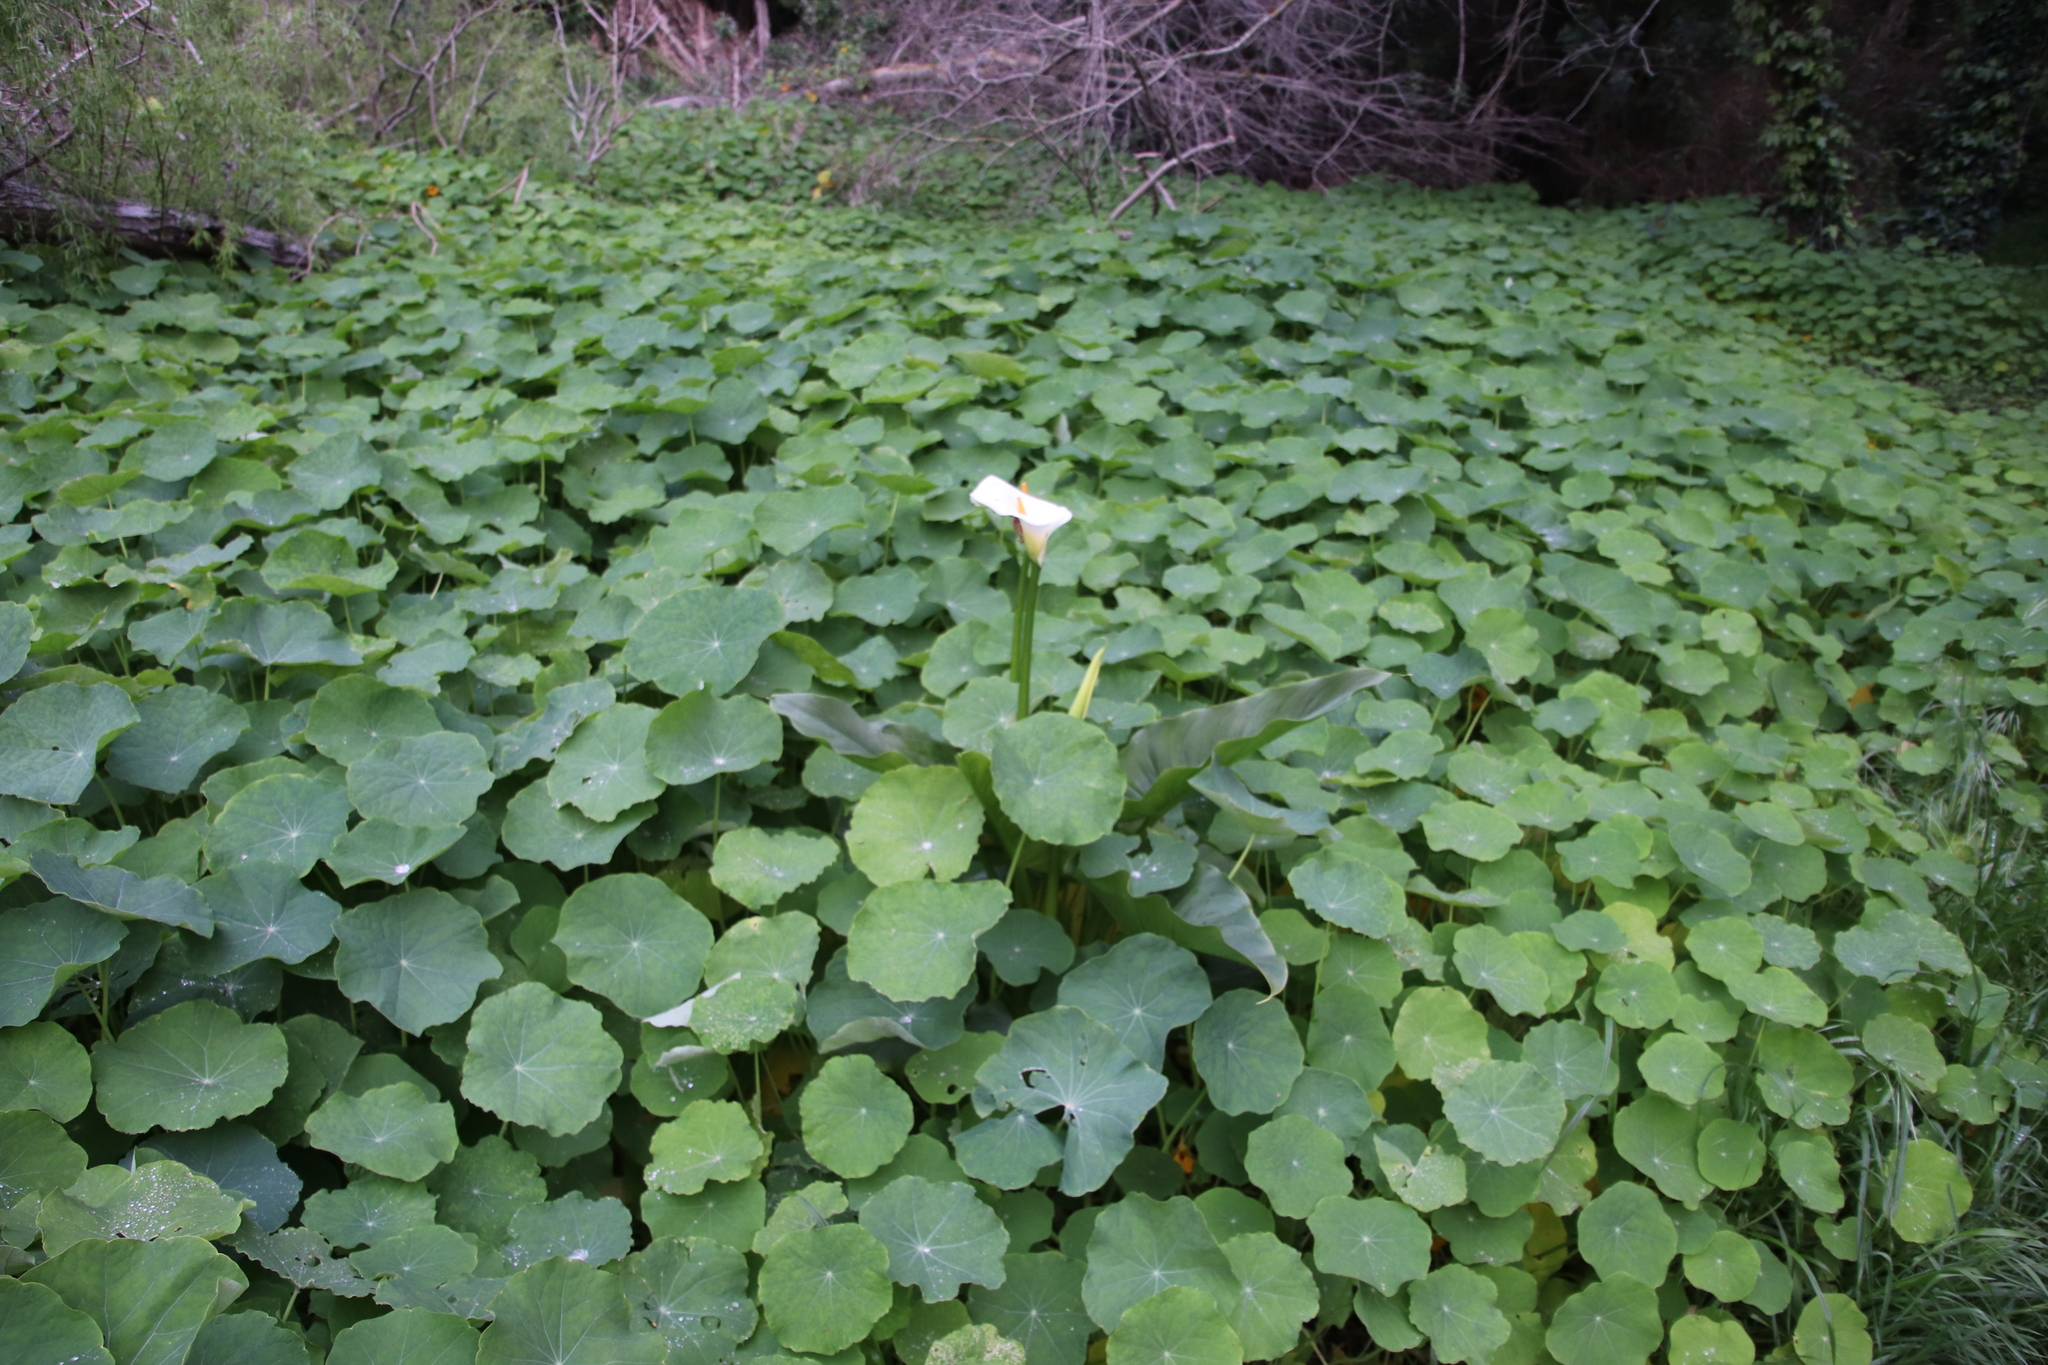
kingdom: Plantae
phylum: Tracheophyta
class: Liliopsida
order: Alismatales
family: Araceae
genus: Zantedeschia
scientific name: Zantedeschia aethiopica
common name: Altar-lily
